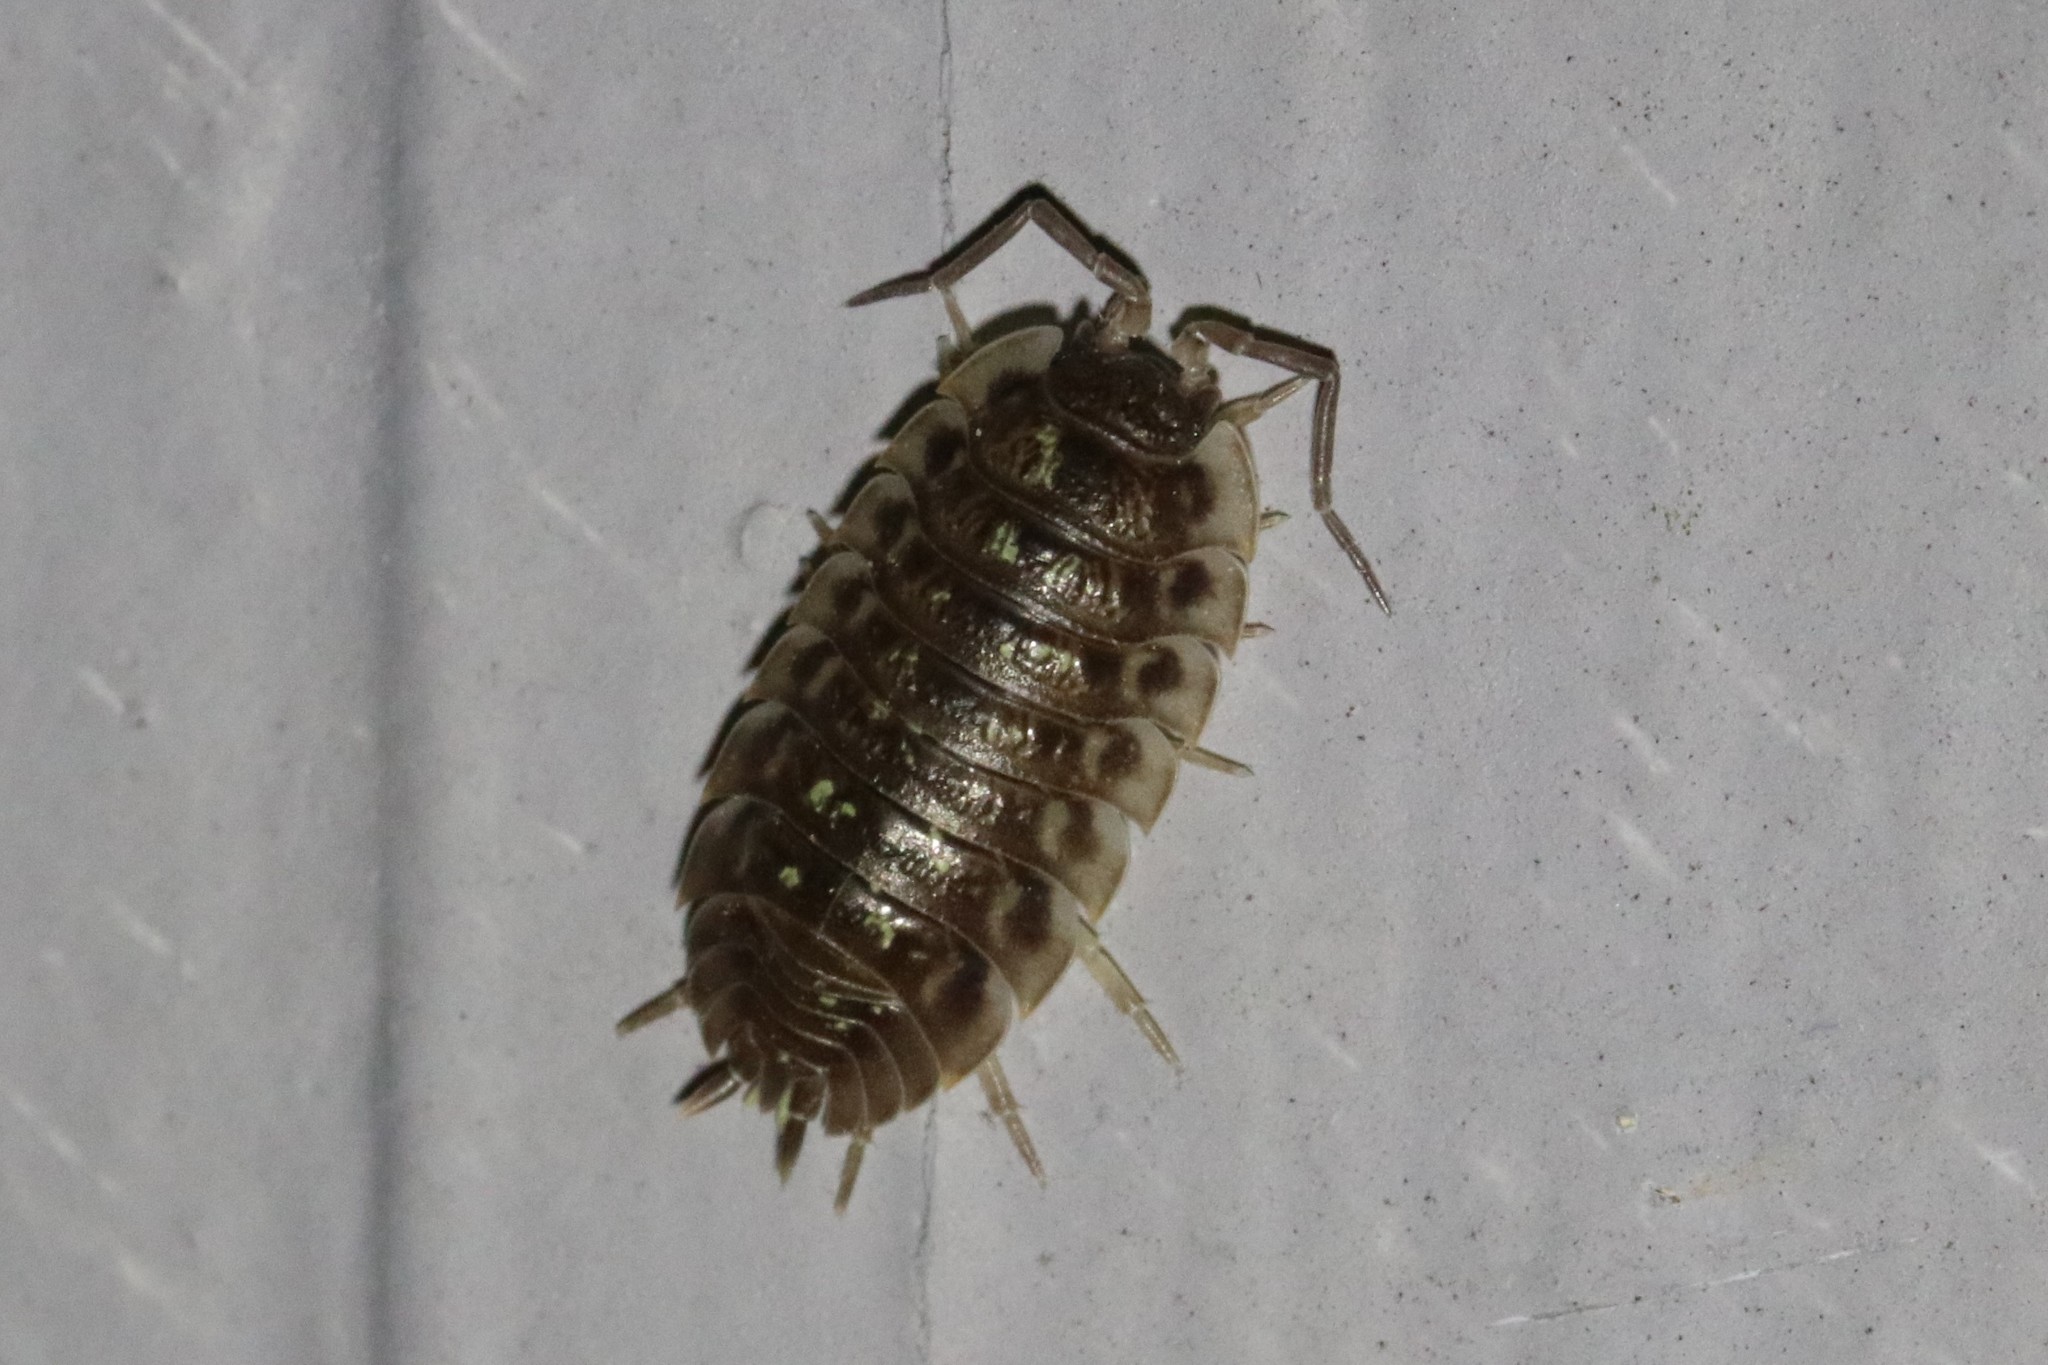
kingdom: Animalia
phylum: Arthropoda
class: Malacostraca
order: Isopoda
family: Oniscidae
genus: Oniscus
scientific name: Oniscus asellus
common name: Common shiny woodlouse
